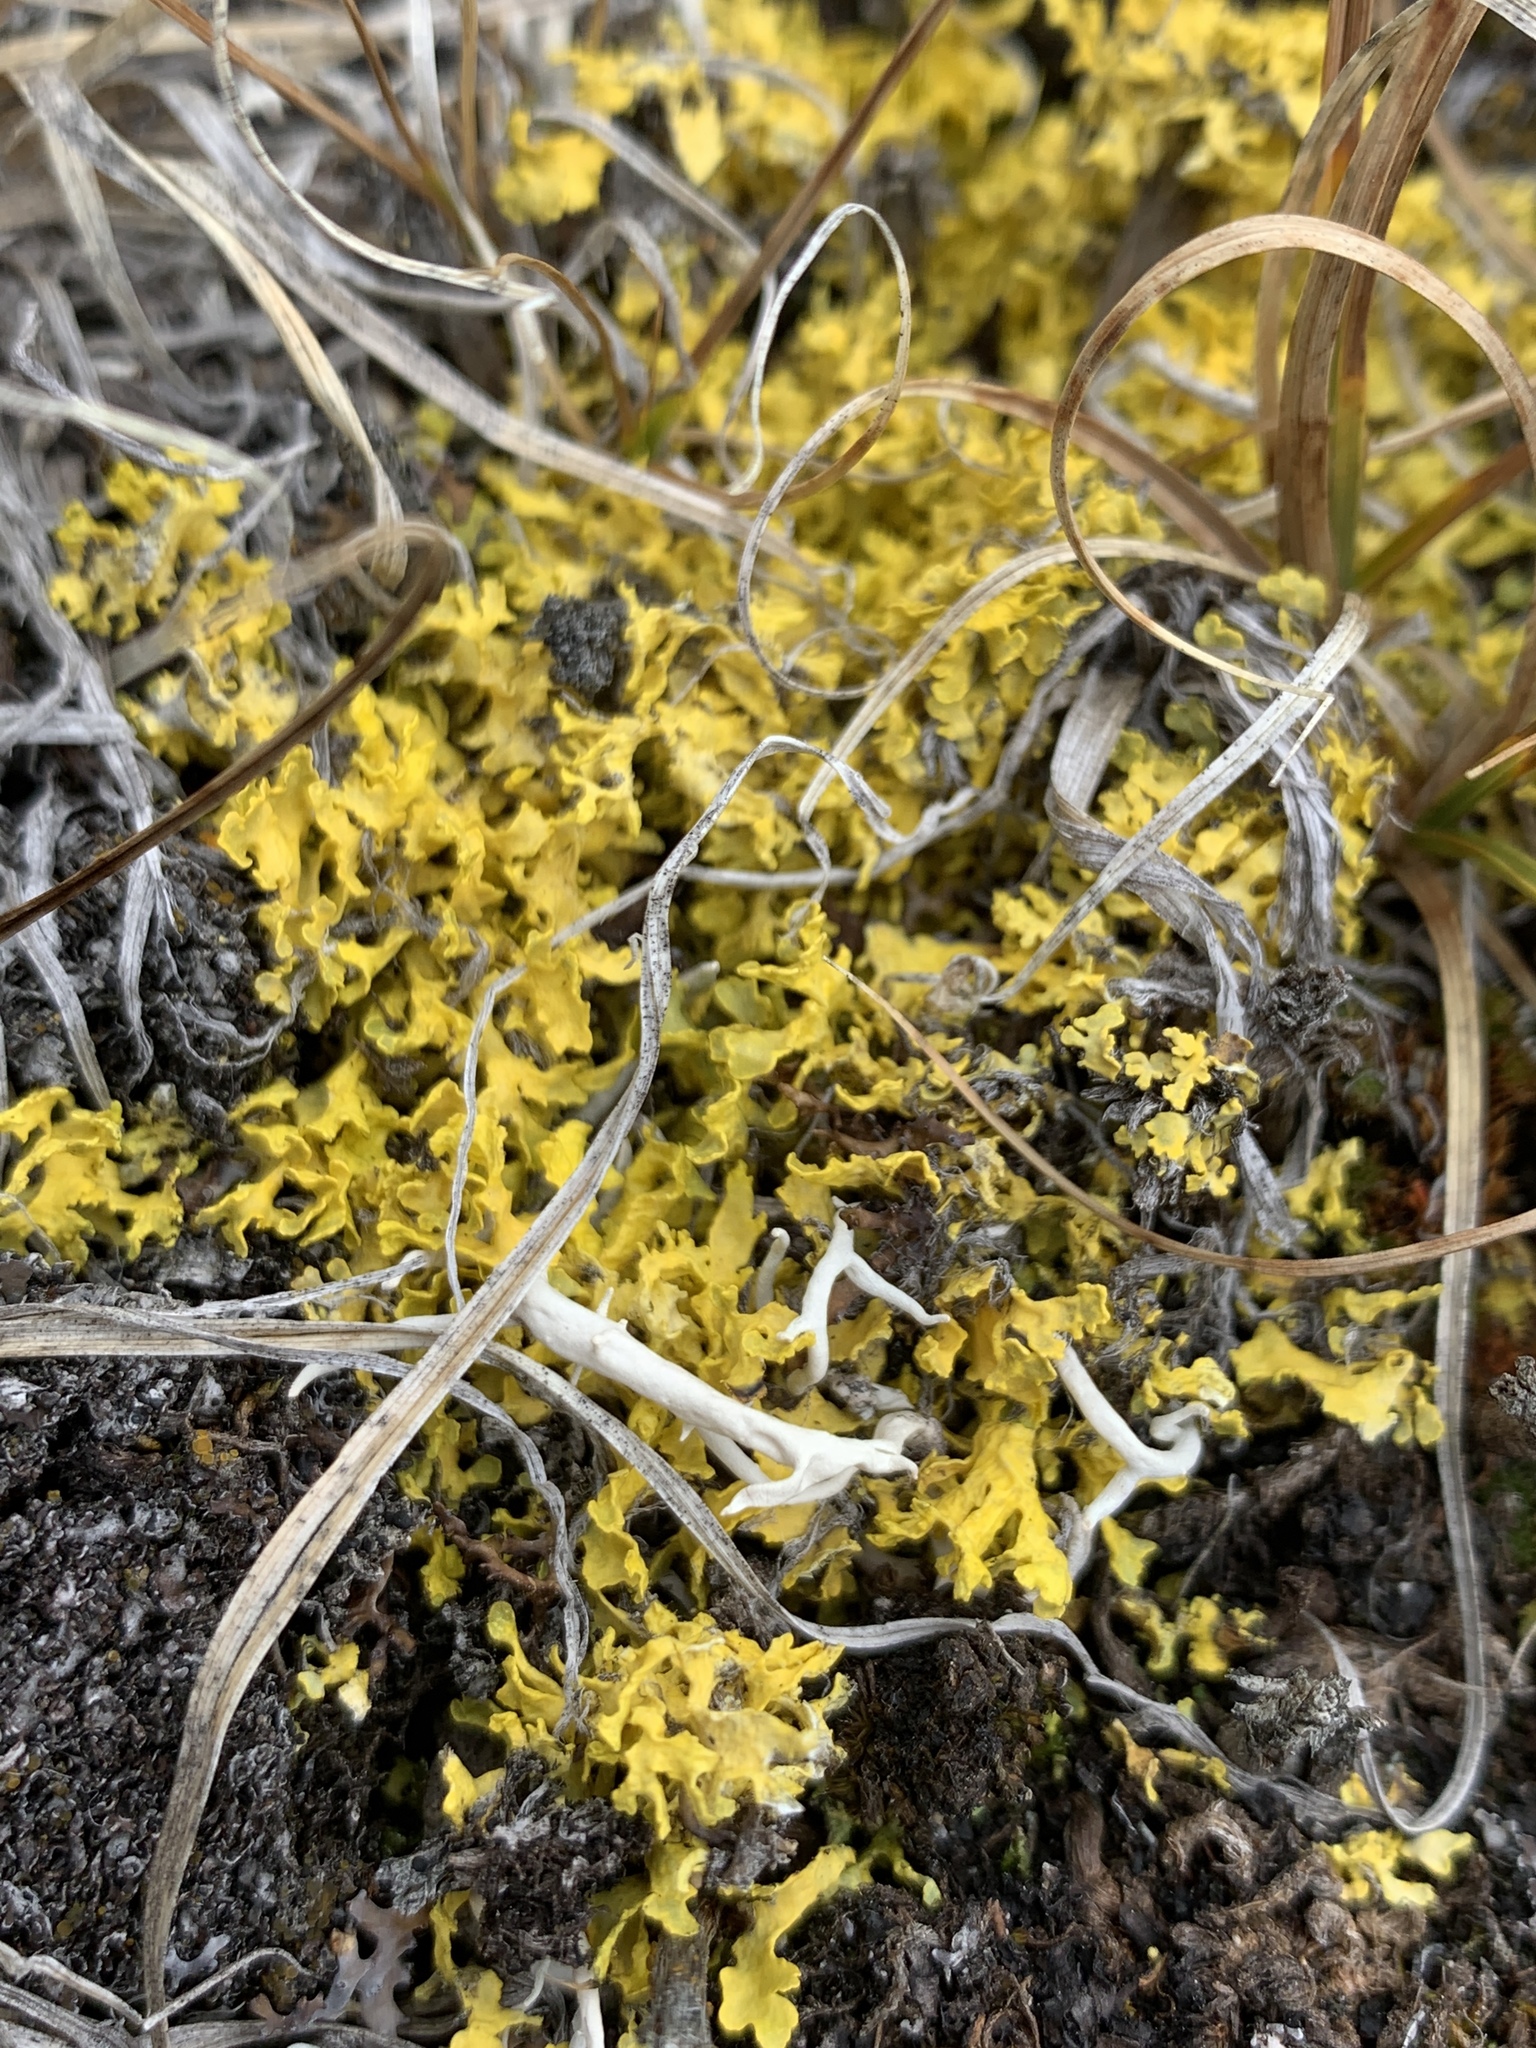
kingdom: Fungi
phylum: Ascomycota
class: Lecanoromycetes
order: Lecanorales
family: Parmeliaceae
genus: Vulpicida
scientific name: Vulpicida juniperinus
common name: Yellow lichen
